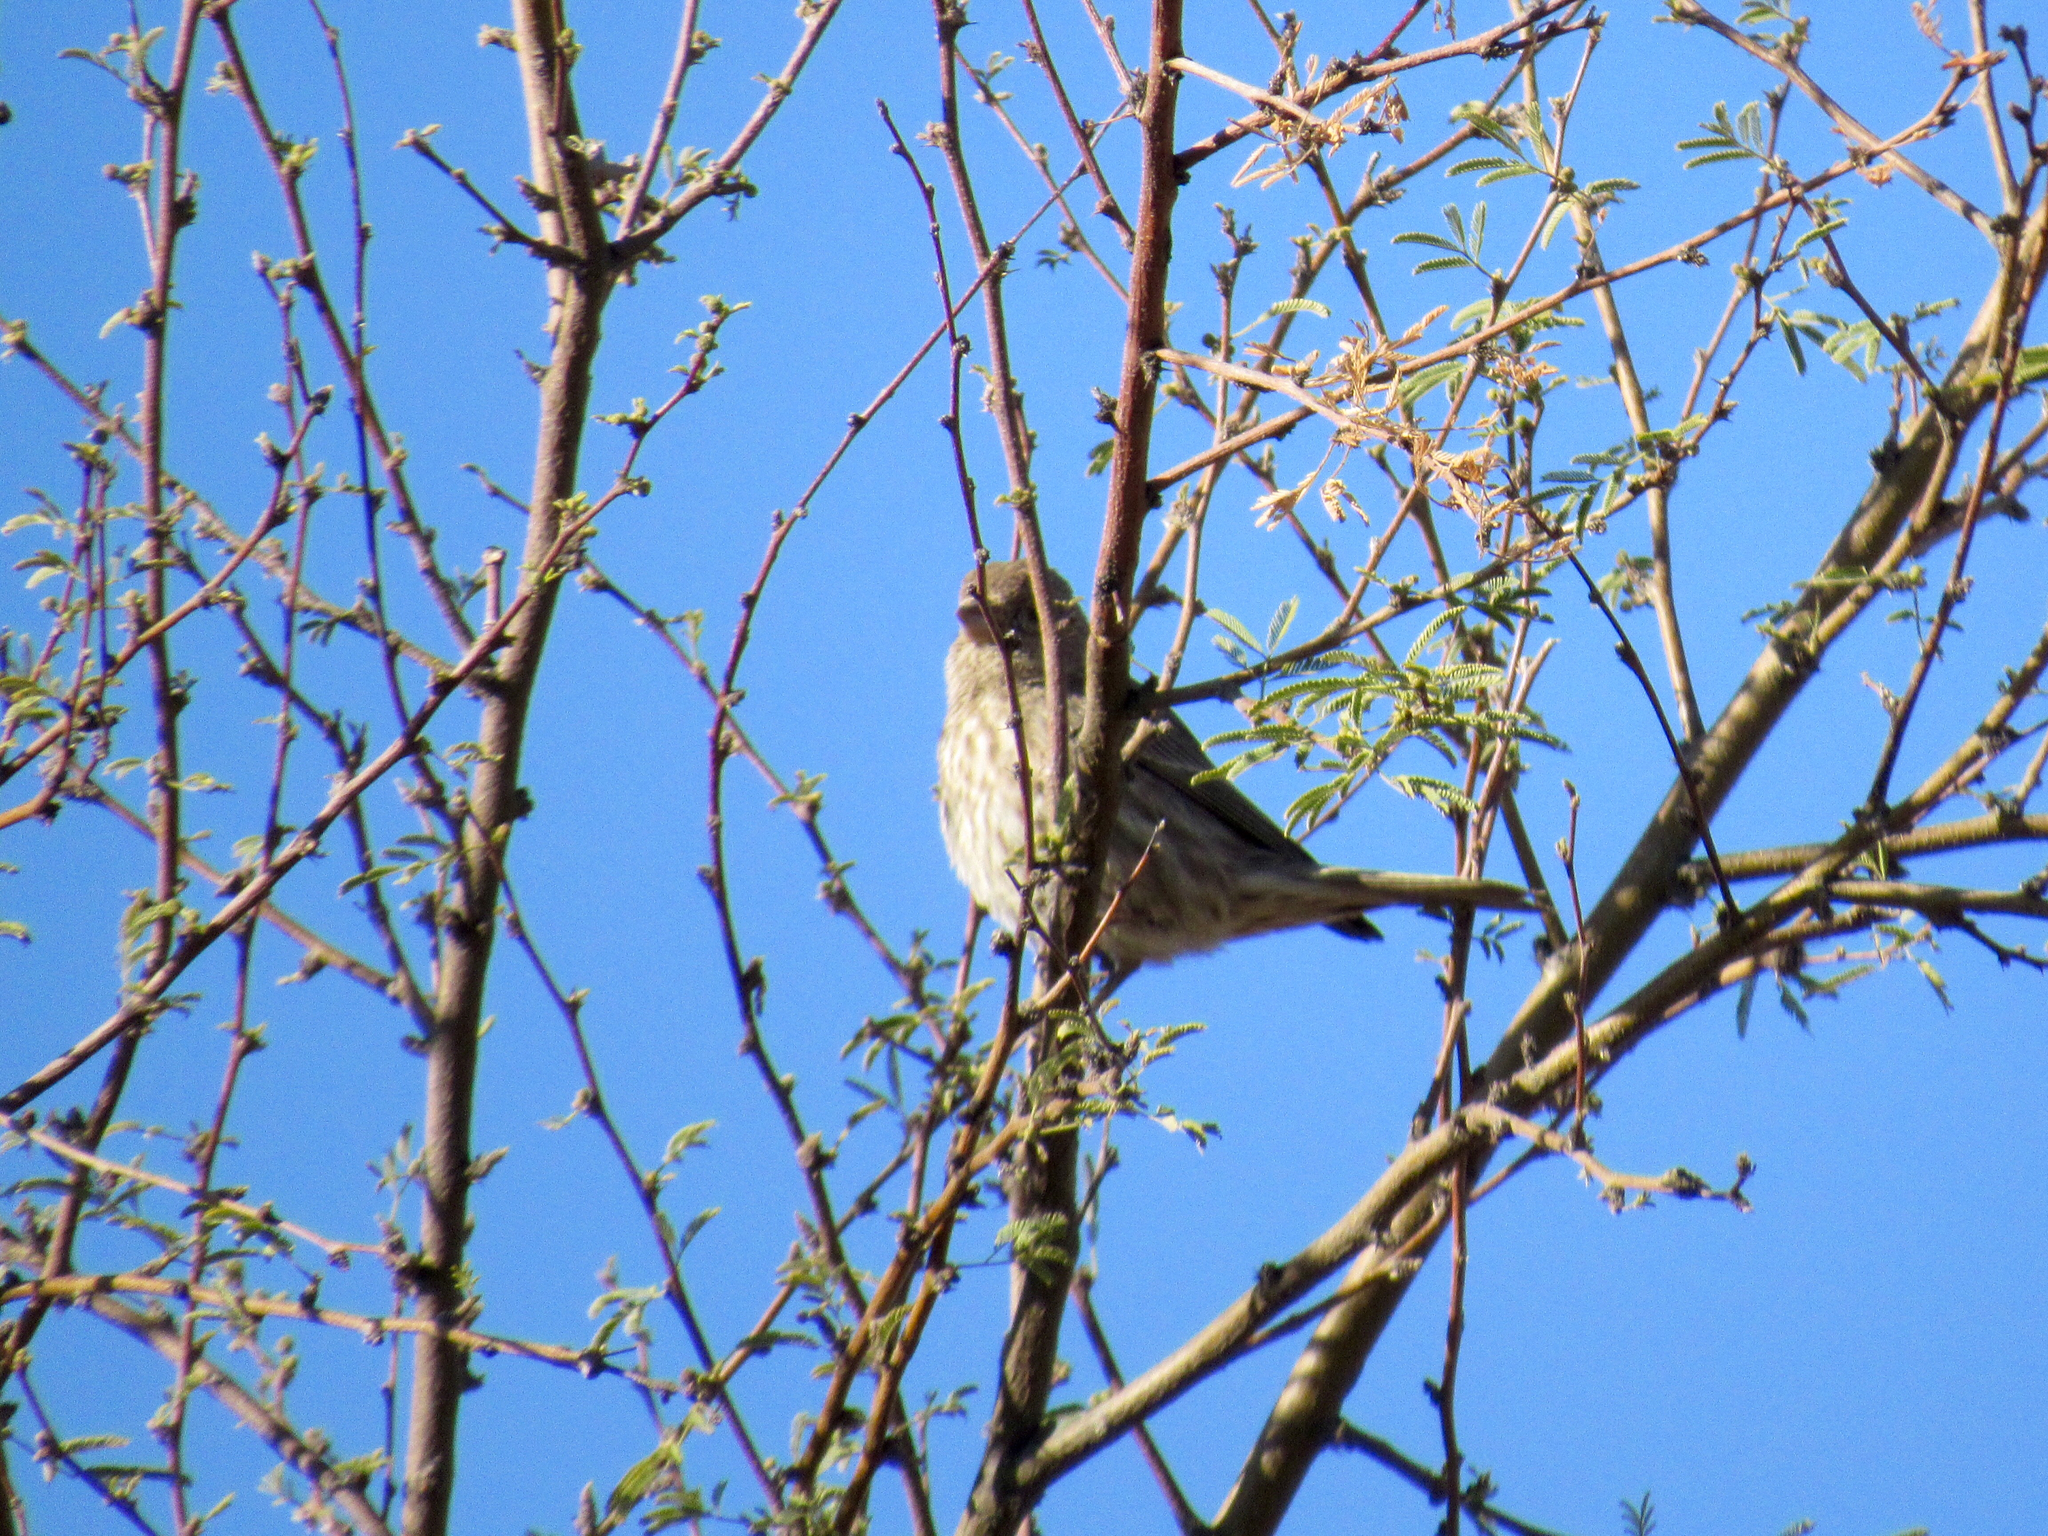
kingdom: Animalia
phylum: Chordata
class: Aves
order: Passeriformes
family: Fringillidae
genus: Haemorhous
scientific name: Haemorhous mexicanus
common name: House finch
